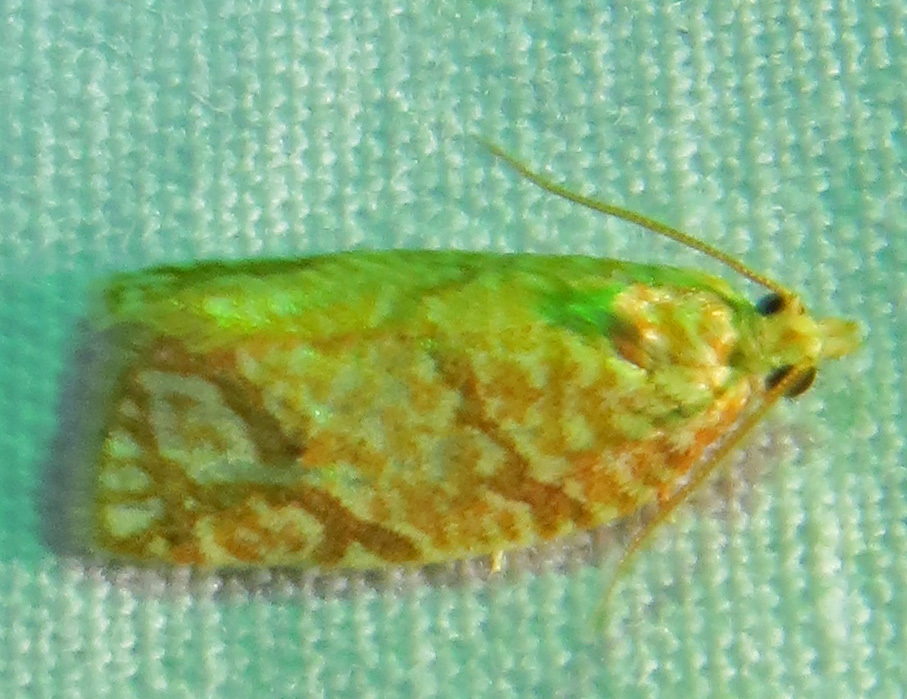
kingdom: Animalia
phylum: Arthropoda
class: Insecta
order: Lepidoptera
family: Tortricidae
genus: Argyrotaenia
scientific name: Argyrotaenia quercifoliana
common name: Yellow-winged oak leafroller moth
